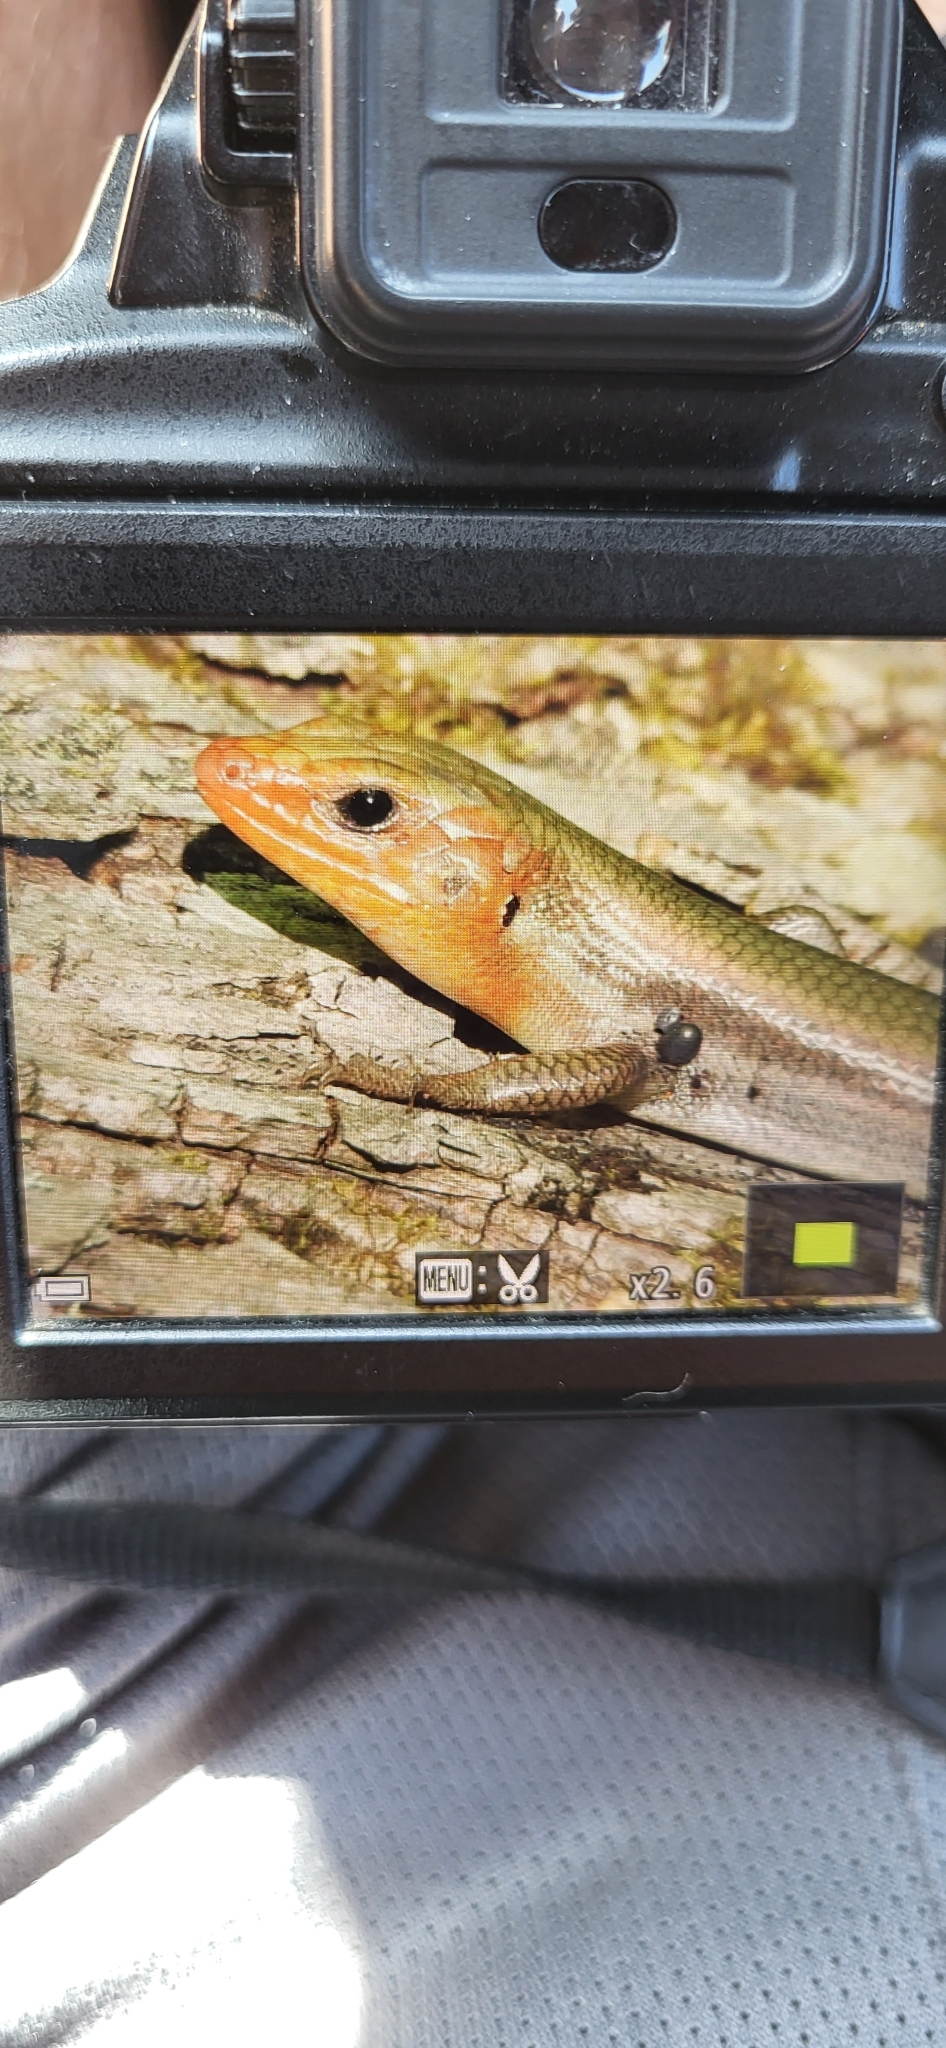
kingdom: Animalia
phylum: Chordata
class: Squamata
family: Scincidae
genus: Plestiodon
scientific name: Plestiodon fasciatus
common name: Five-lined skink
